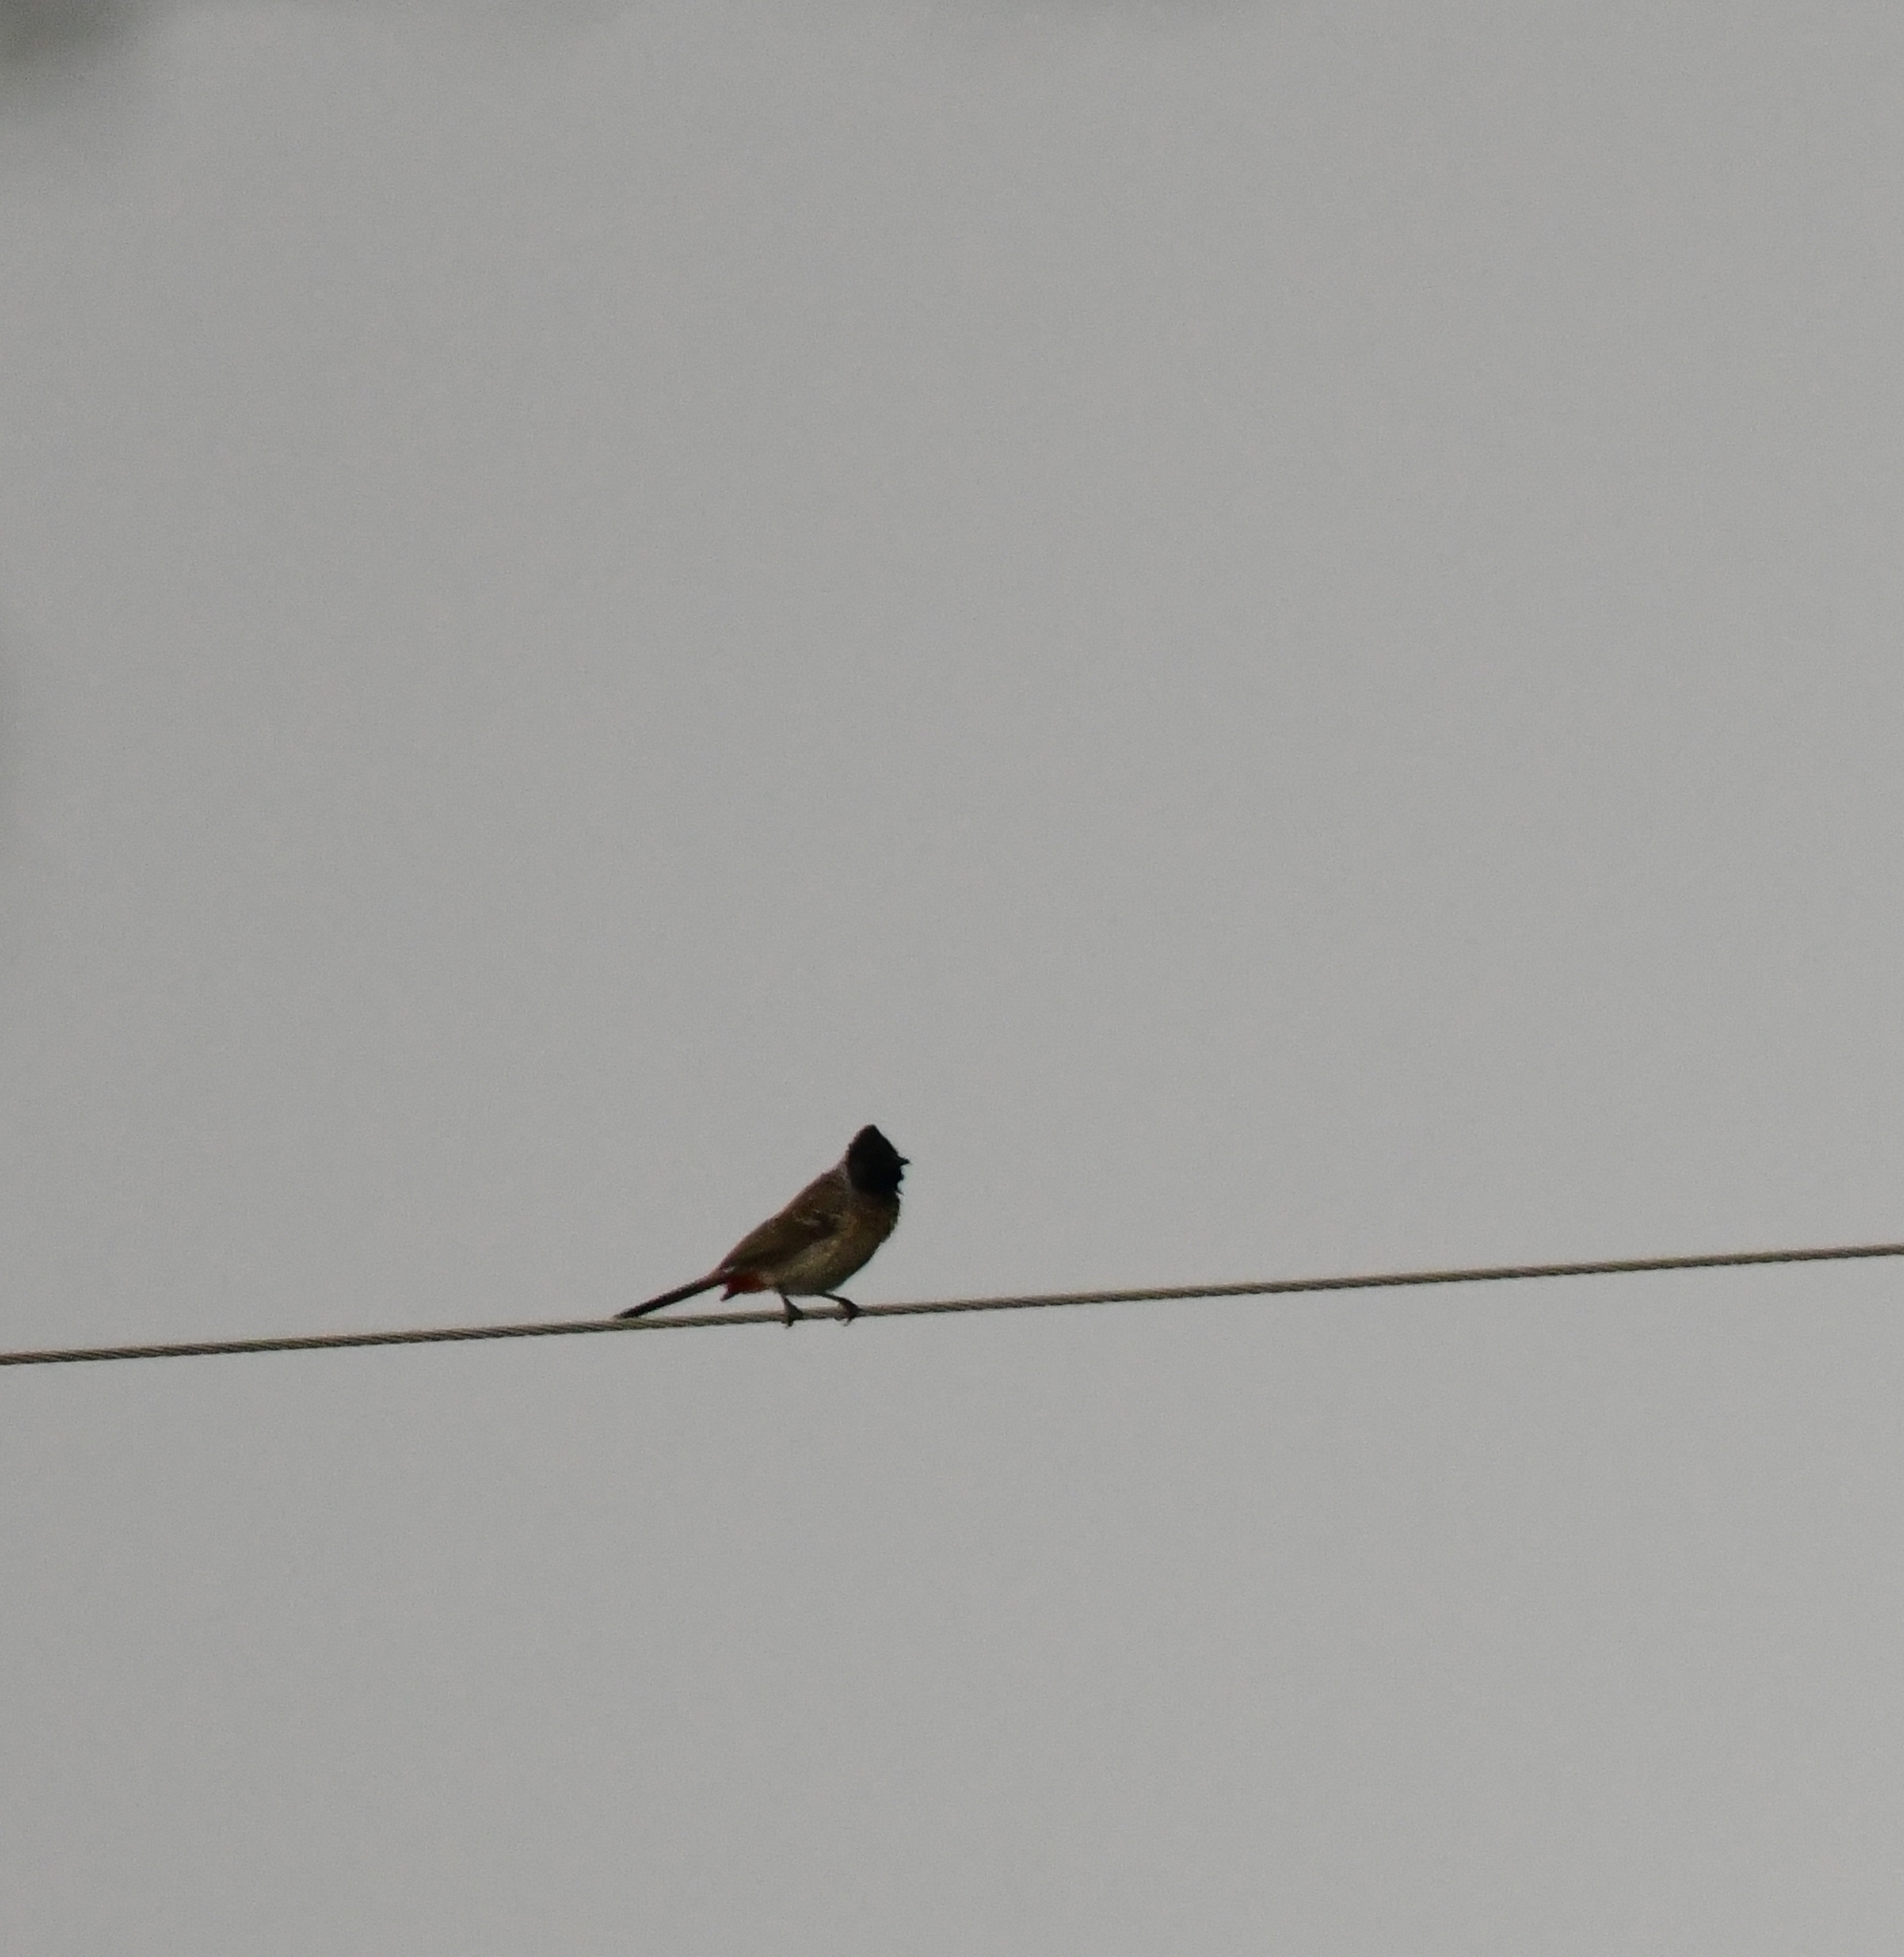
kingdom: Animalia
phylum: Chordata
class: Aves
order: Passeriformes
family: Pycnonotidae
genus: Pycnonotus
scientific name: Pycnonotus cafer
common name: Red-vented bulbul
